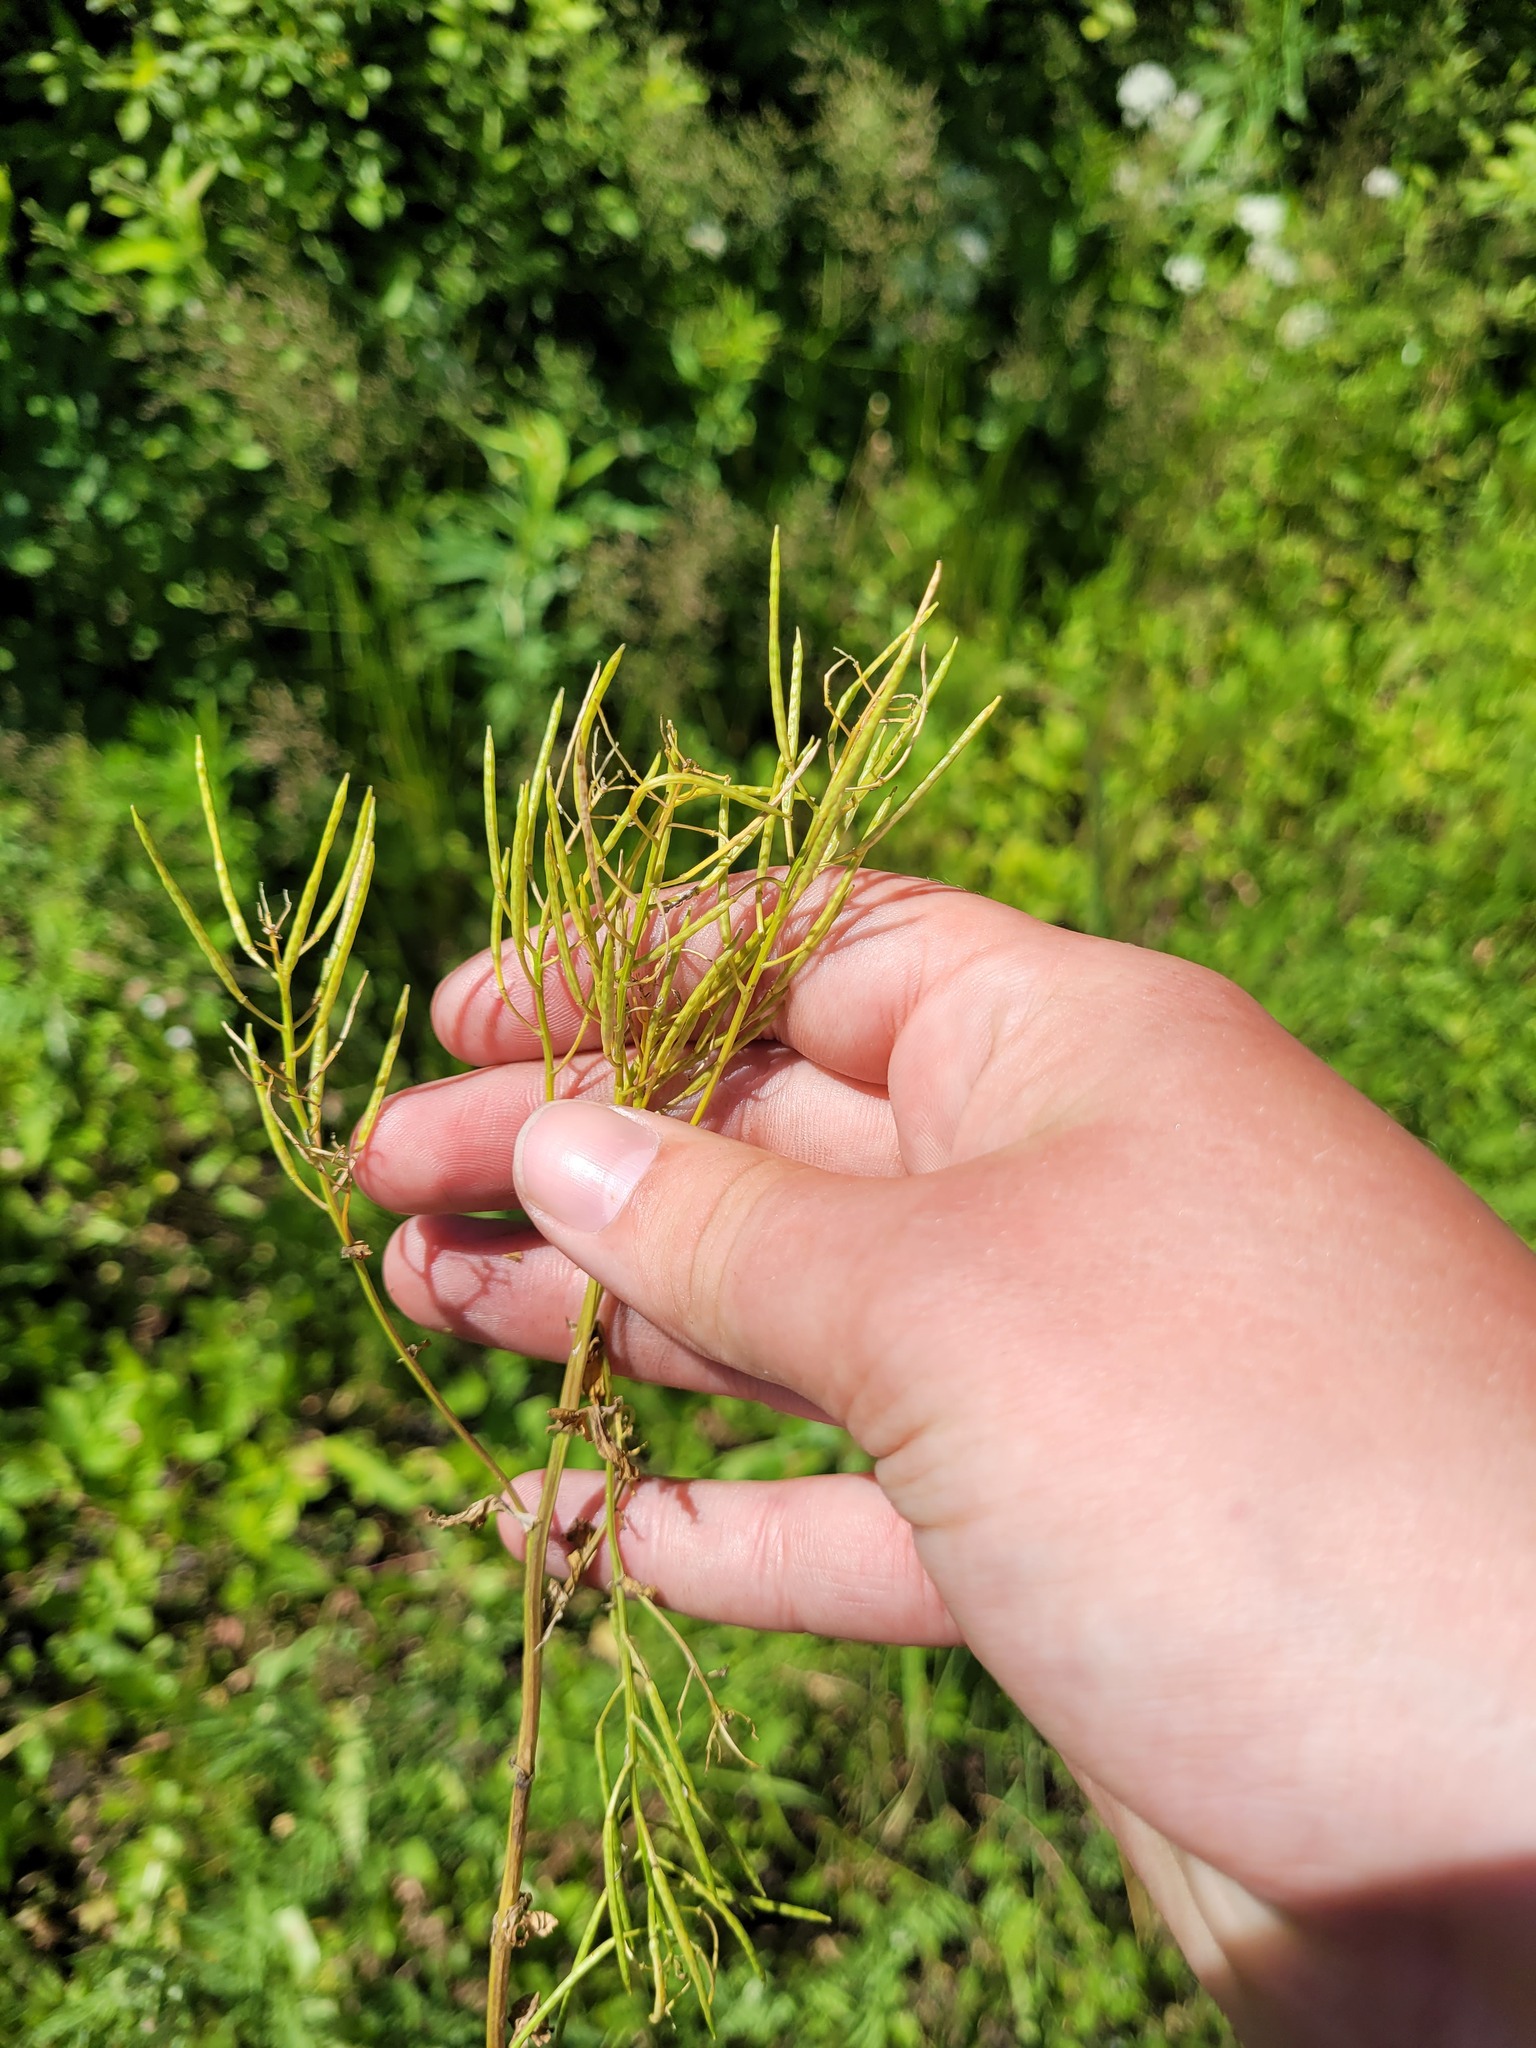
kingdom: Plantae
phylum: Tracheophyta
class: Magnoliopsida
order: Brassicales
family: Brassicaceae
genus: Barbarea
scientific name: Barbarea vulgaris
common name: Cressy-greens
